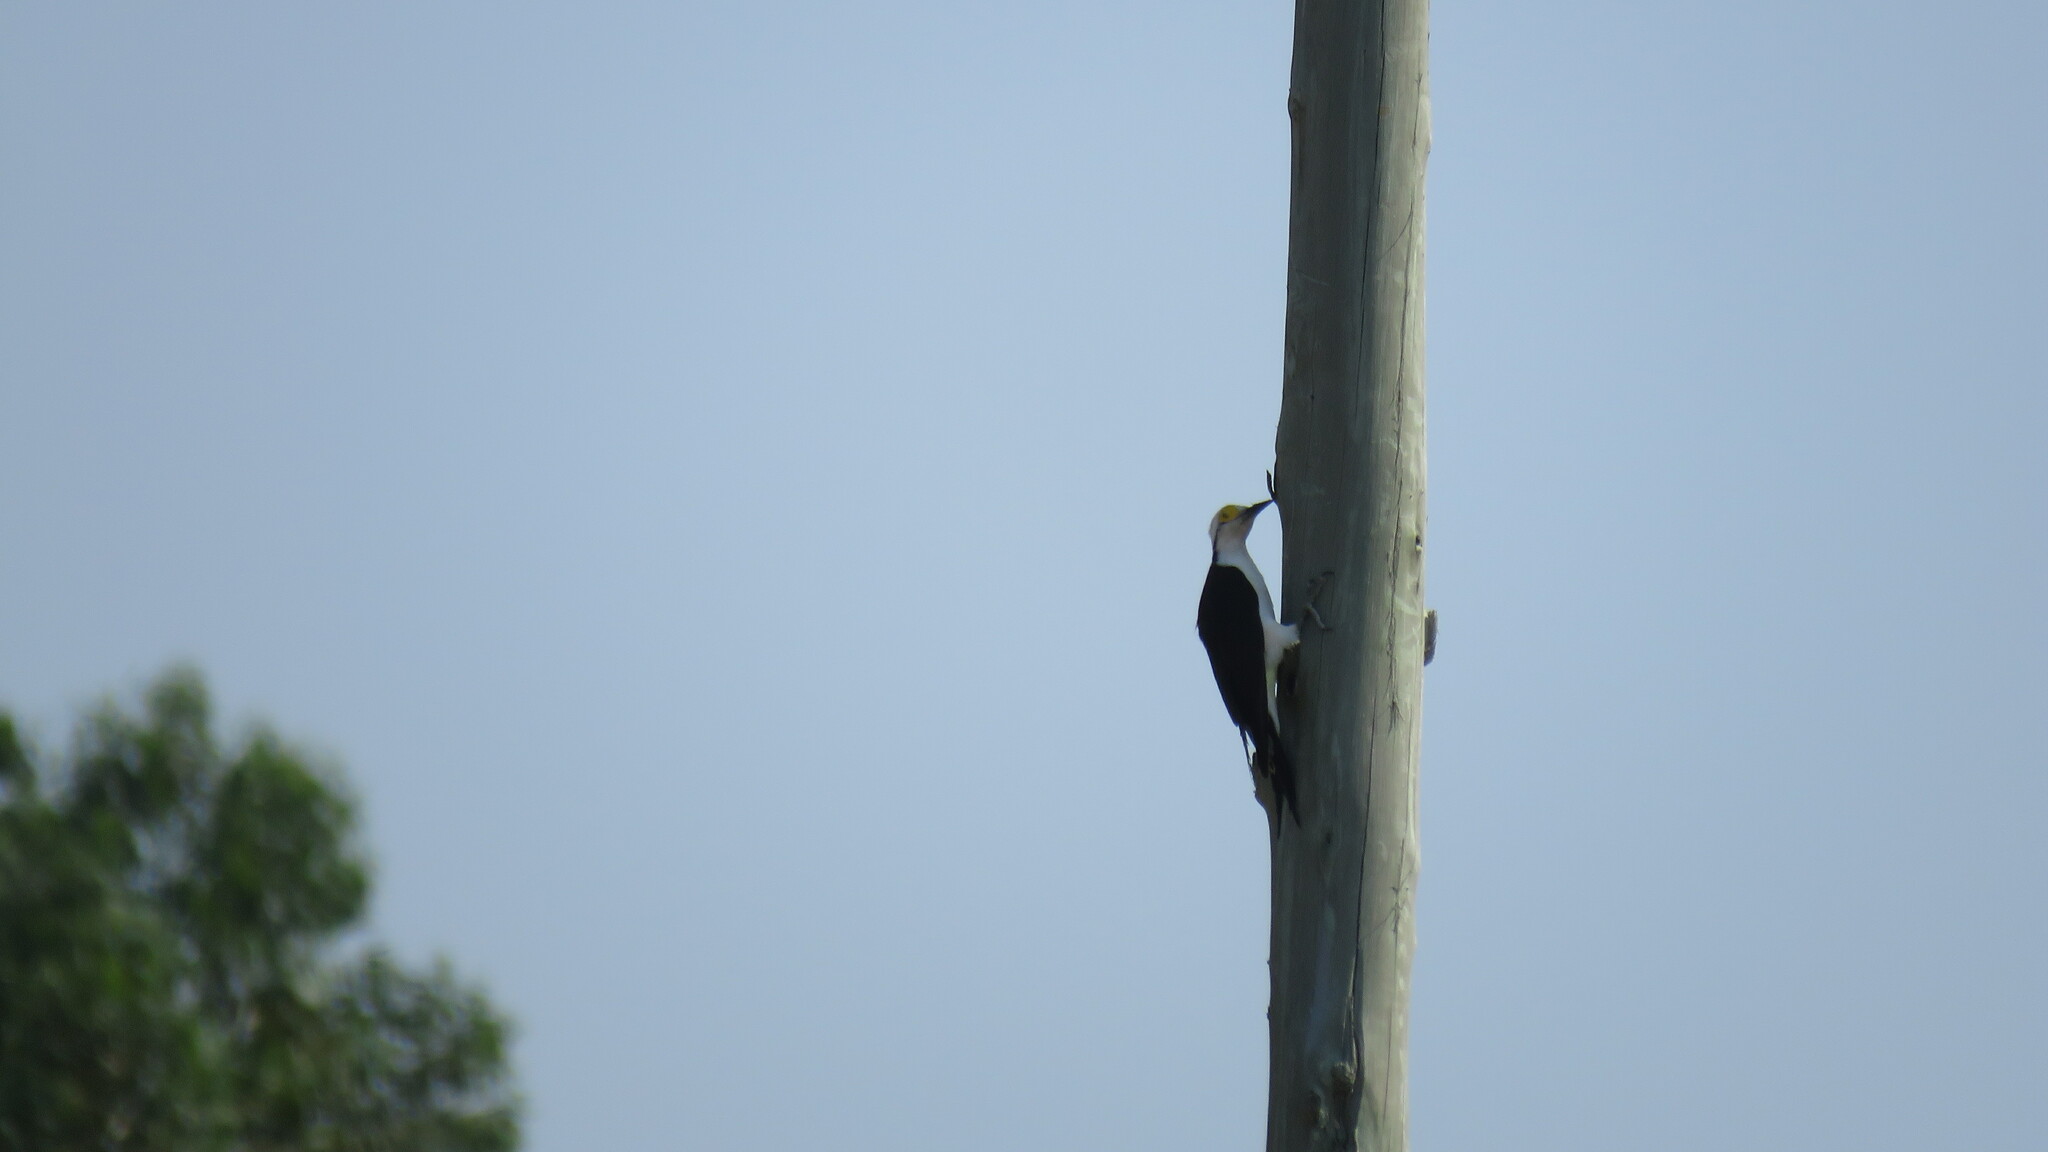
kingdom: Animalia
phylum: Chordata
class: Aves
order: Piciformes
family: Picidae
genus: Melanerpes
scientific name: Melanerpes candidus
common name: White woodpecker
